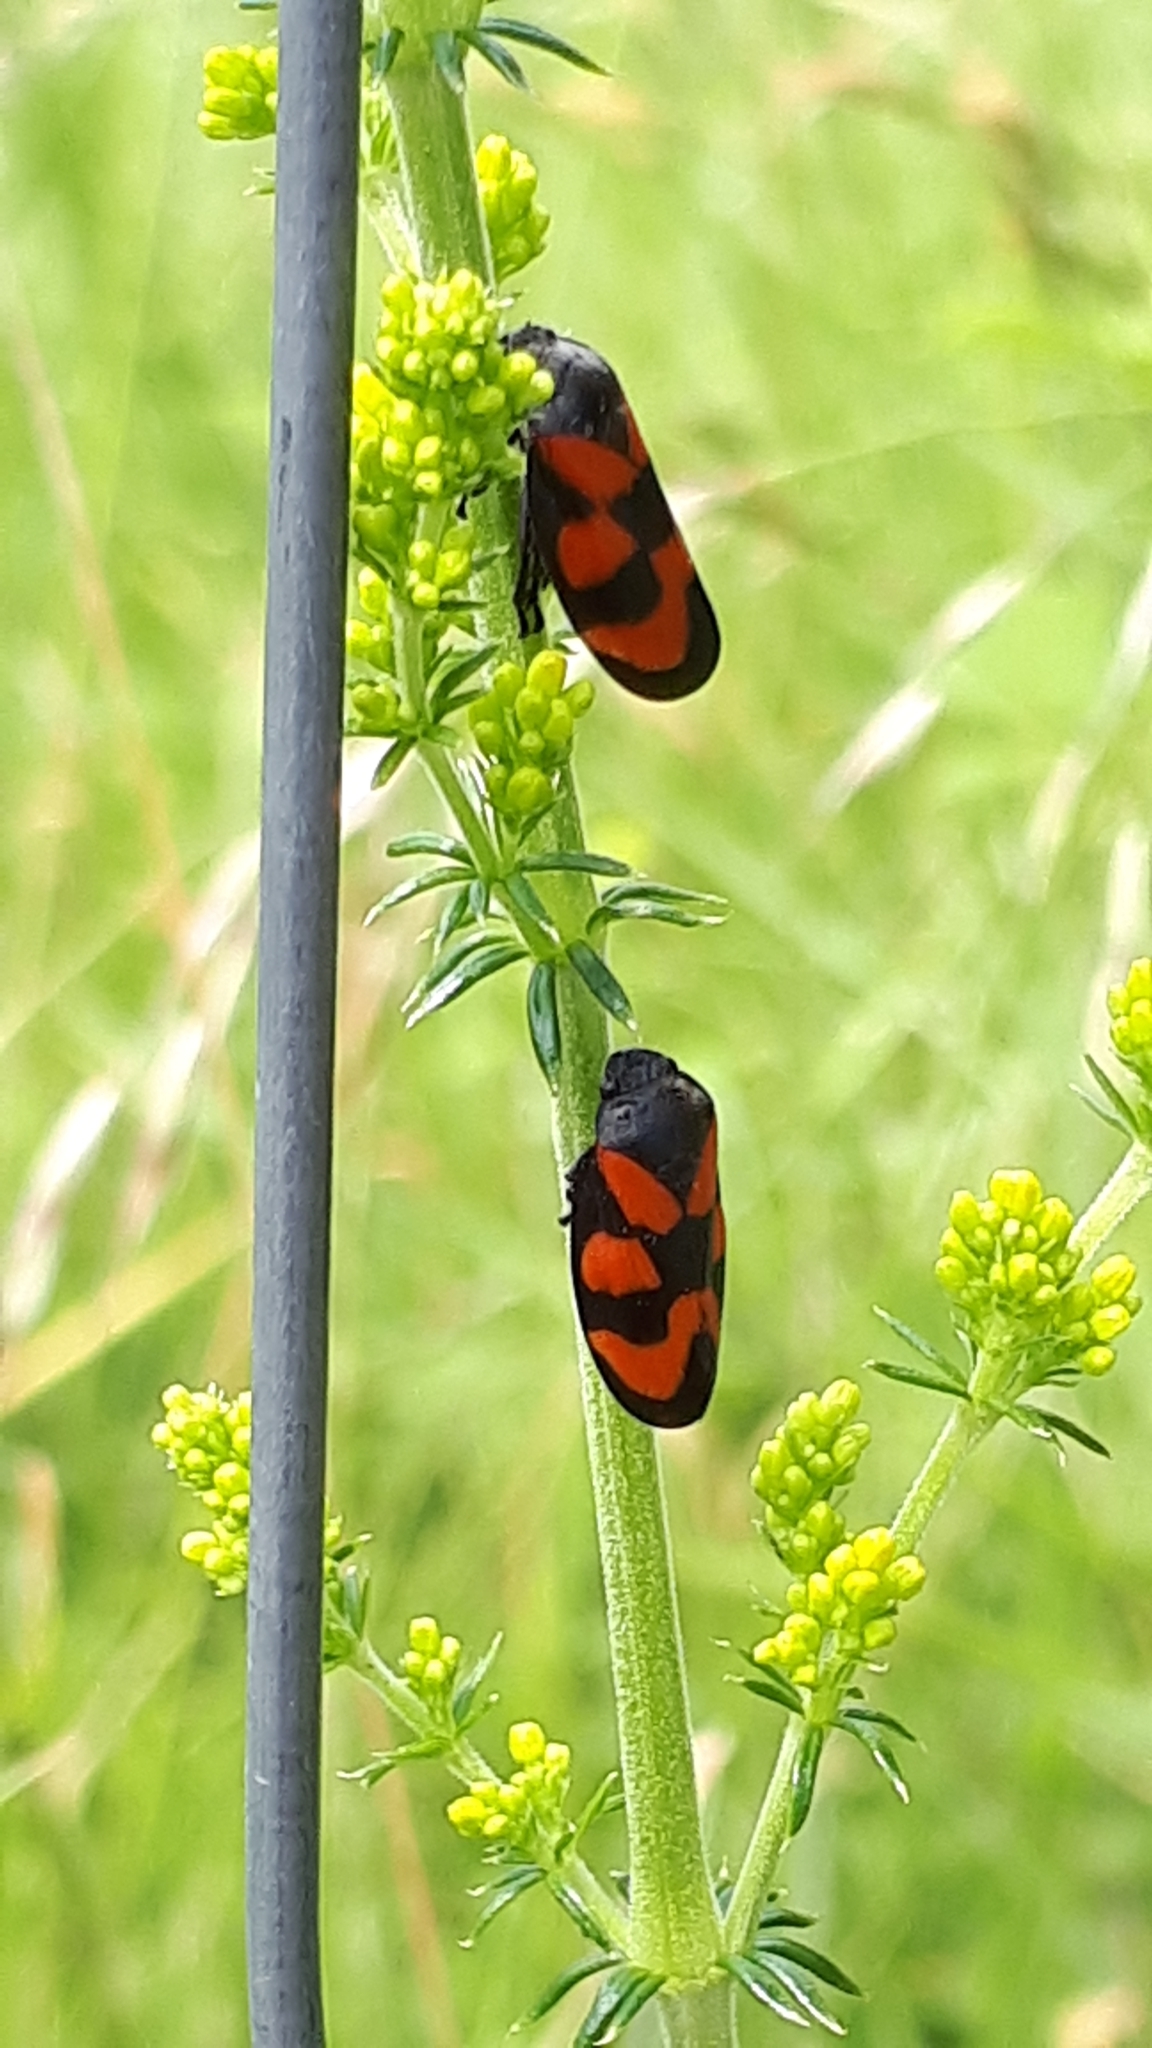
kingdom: Animalia
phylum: Arthropoda
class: Insecta
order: Hemiptera
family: Cercopidae
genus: Cercopis
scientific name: Cercopis vulnerata
